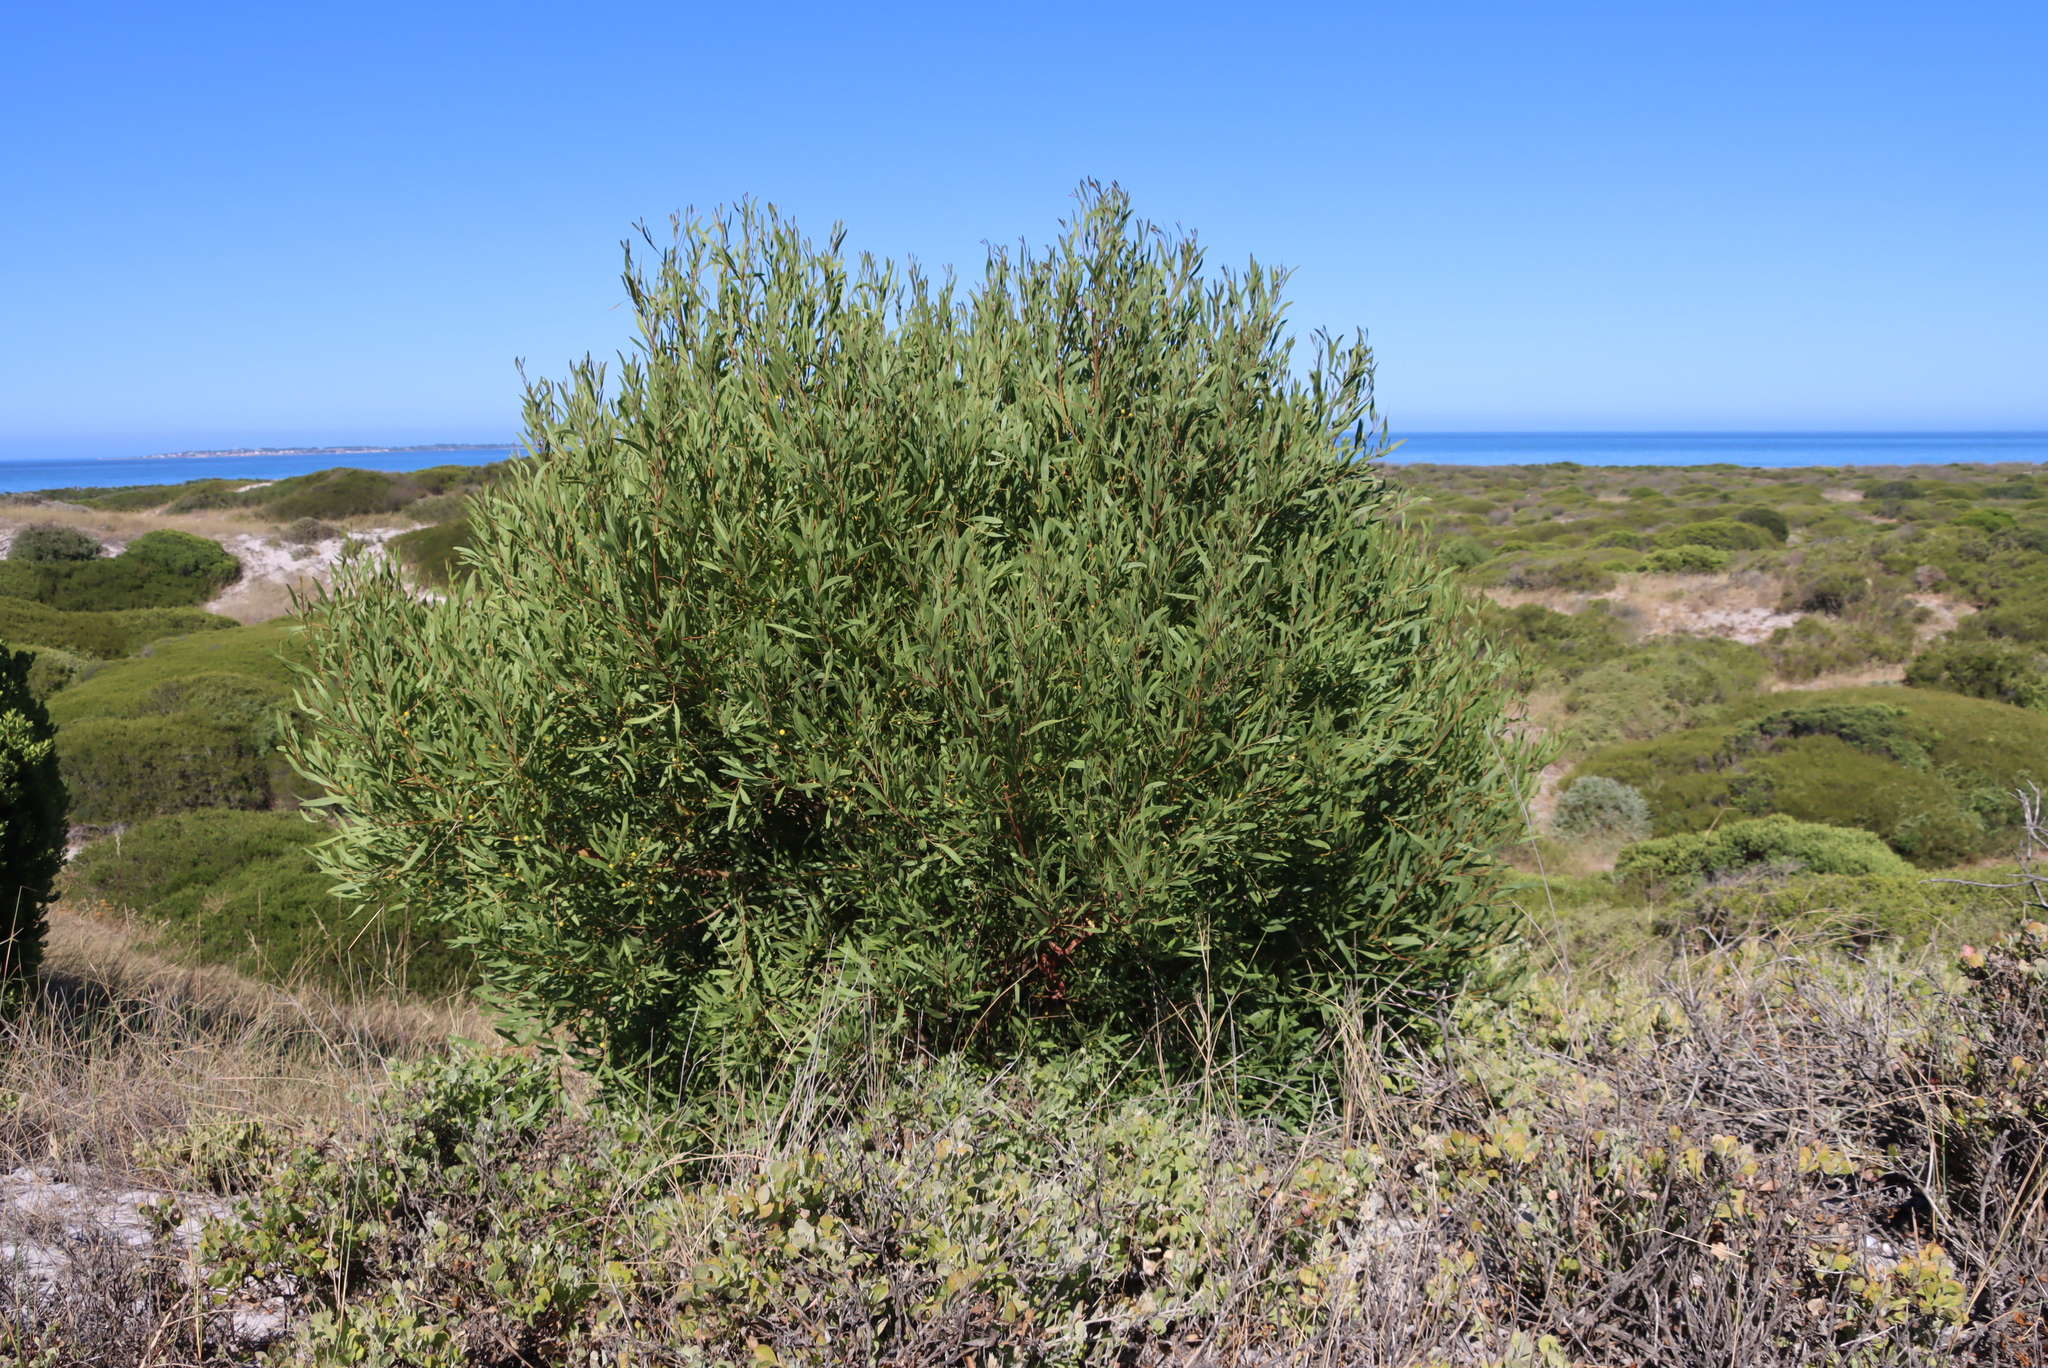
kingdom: Plantae
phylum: Tracheophyta
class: Magnoliopsida
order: Fabales
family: Fabaceae
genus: Acacia
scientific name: Acacia cyclops
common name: Coastal wattle
